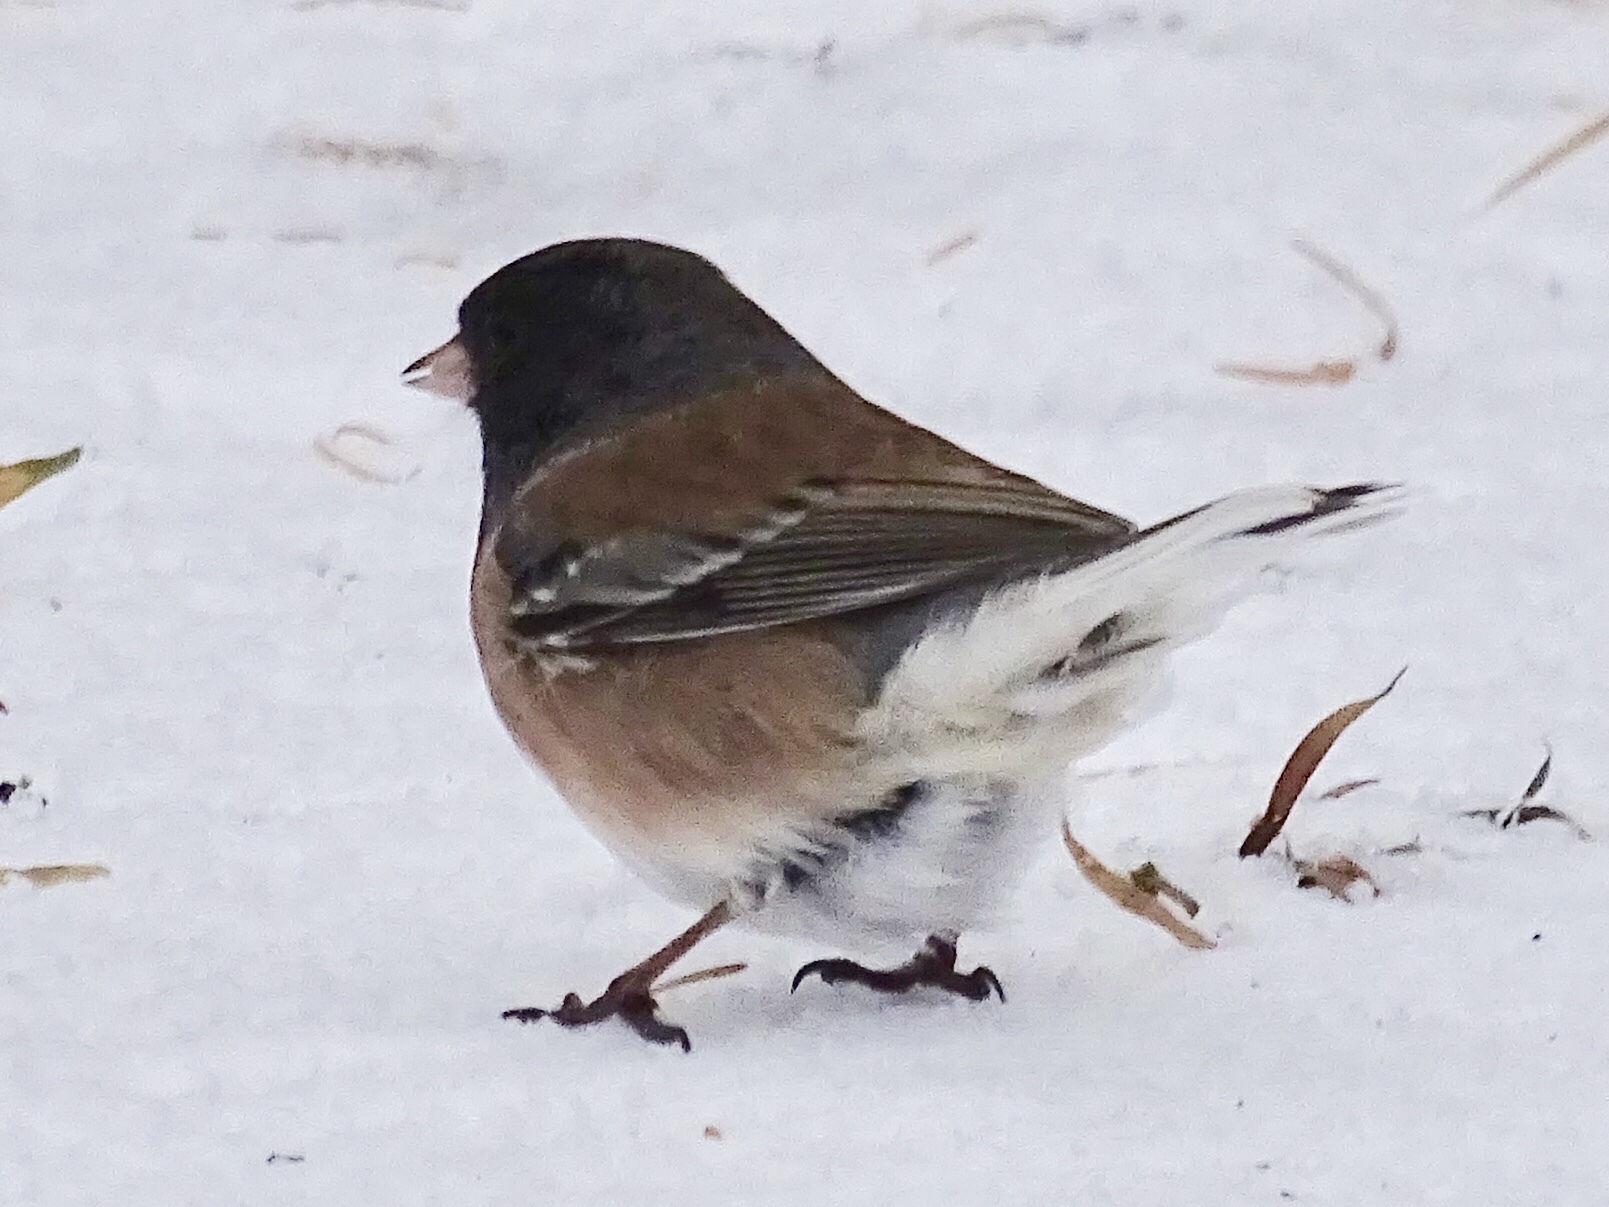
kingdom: Animalia
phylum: Chordata
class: Aves
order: Passeriformes
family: Passerellidae
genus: Junco
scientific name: Junco hyemalis
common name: Dark-eyed junco
